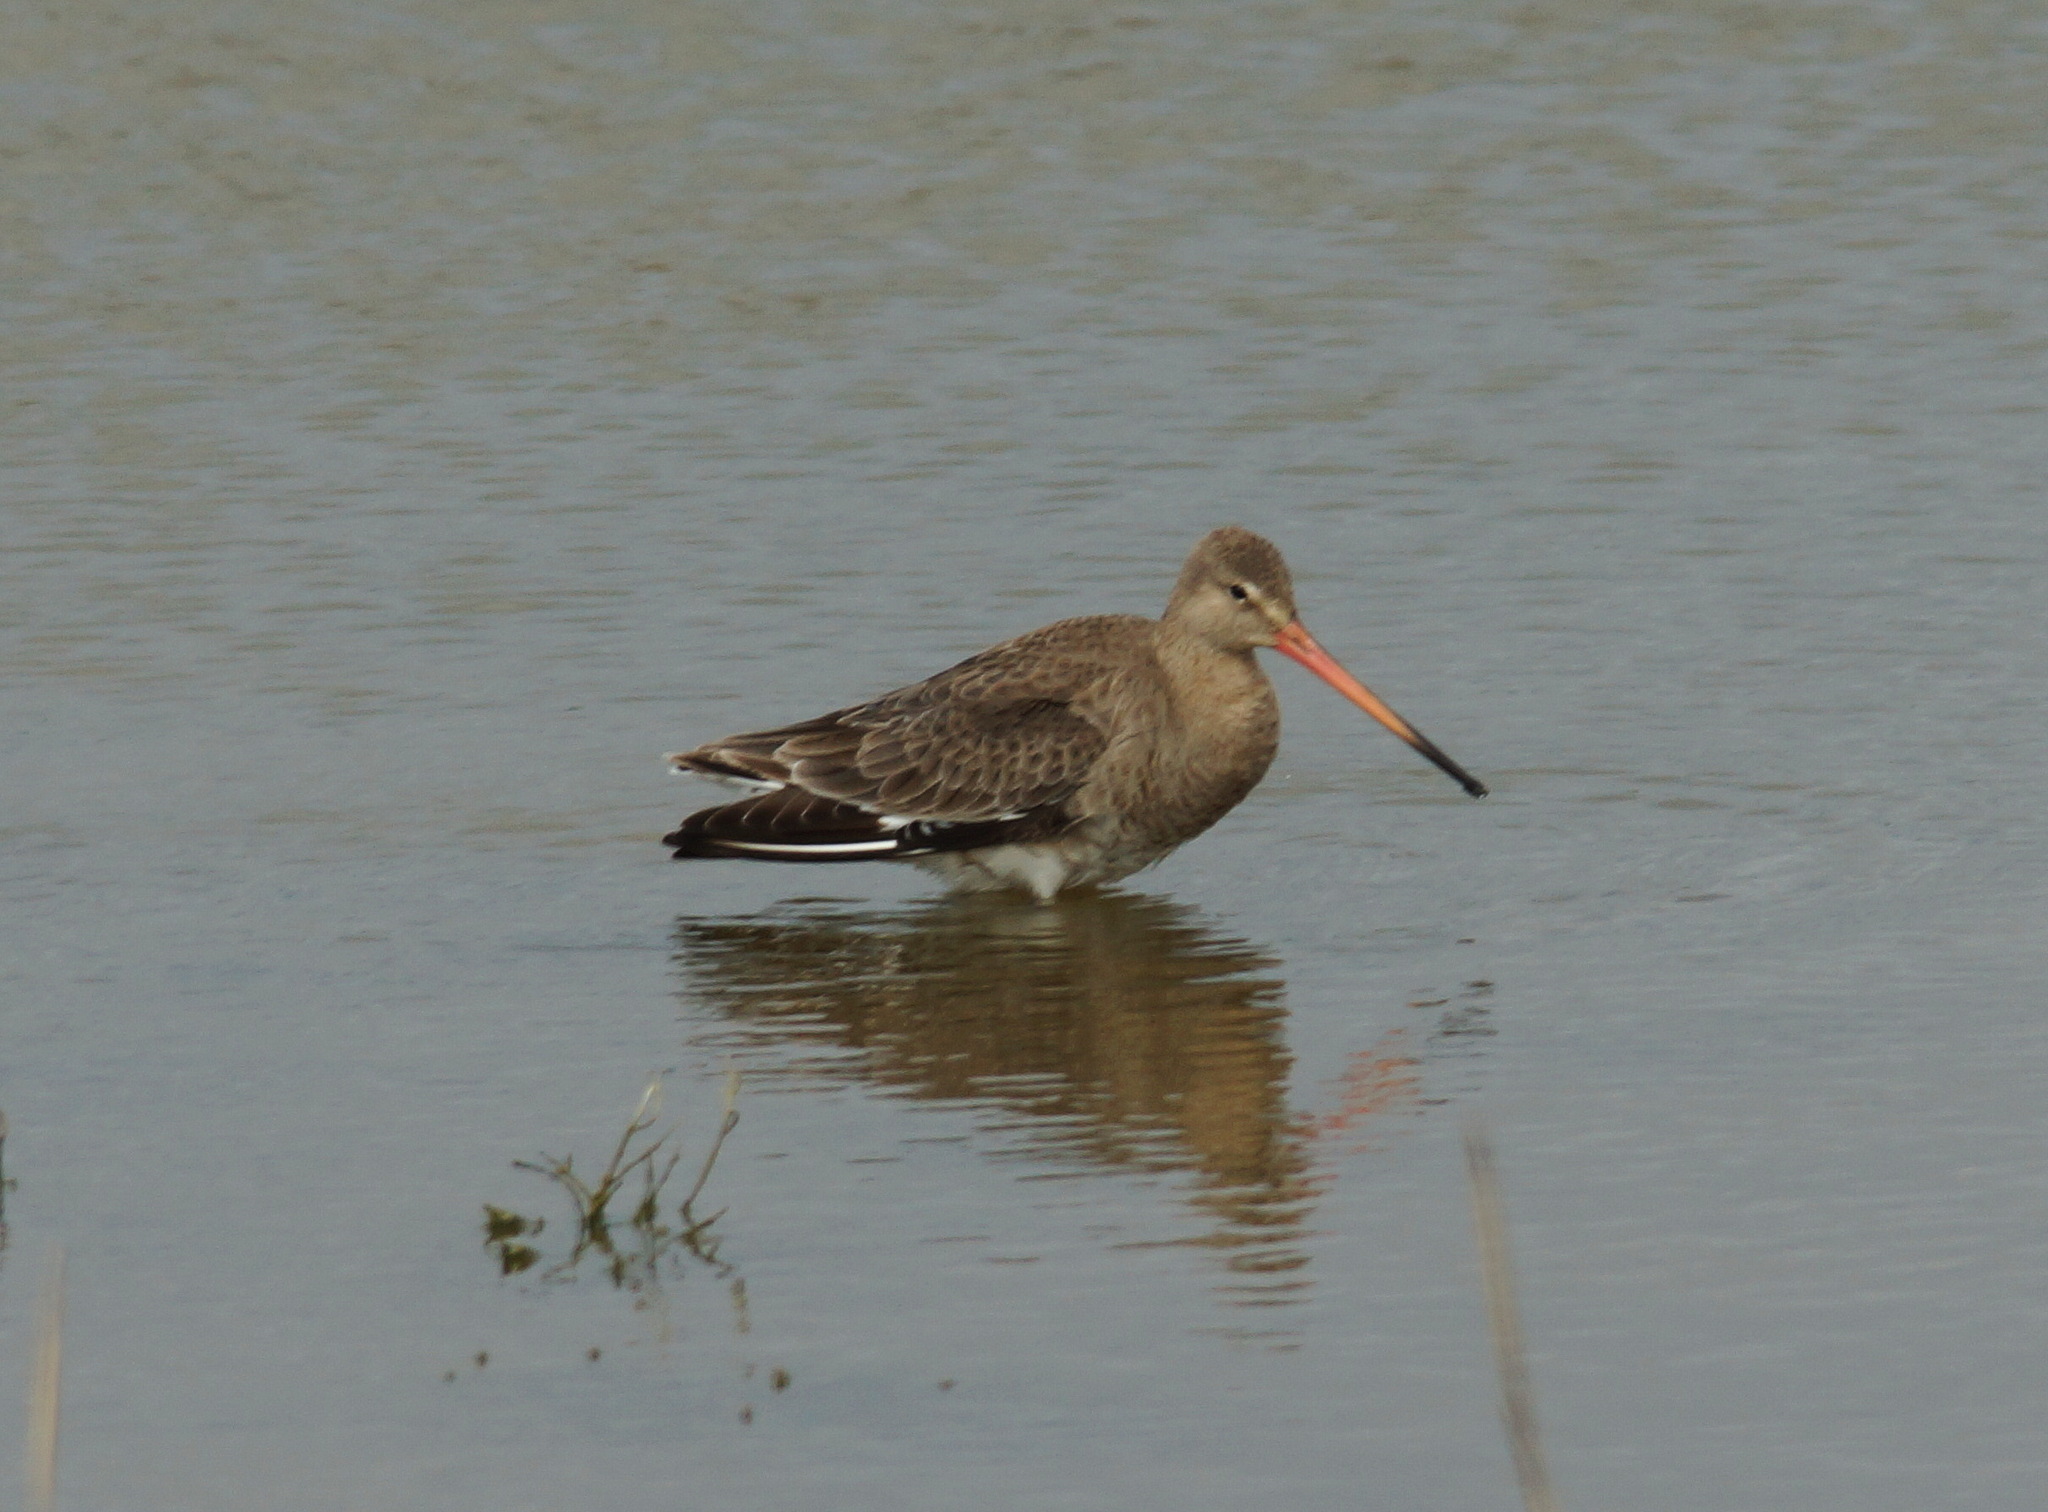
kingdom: Animalia
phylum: Chordata
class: Aves
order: Charadriiformes
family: Scolopacidae
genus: Limosa
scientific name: Limosa limosa
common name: Black-tailed godwit
